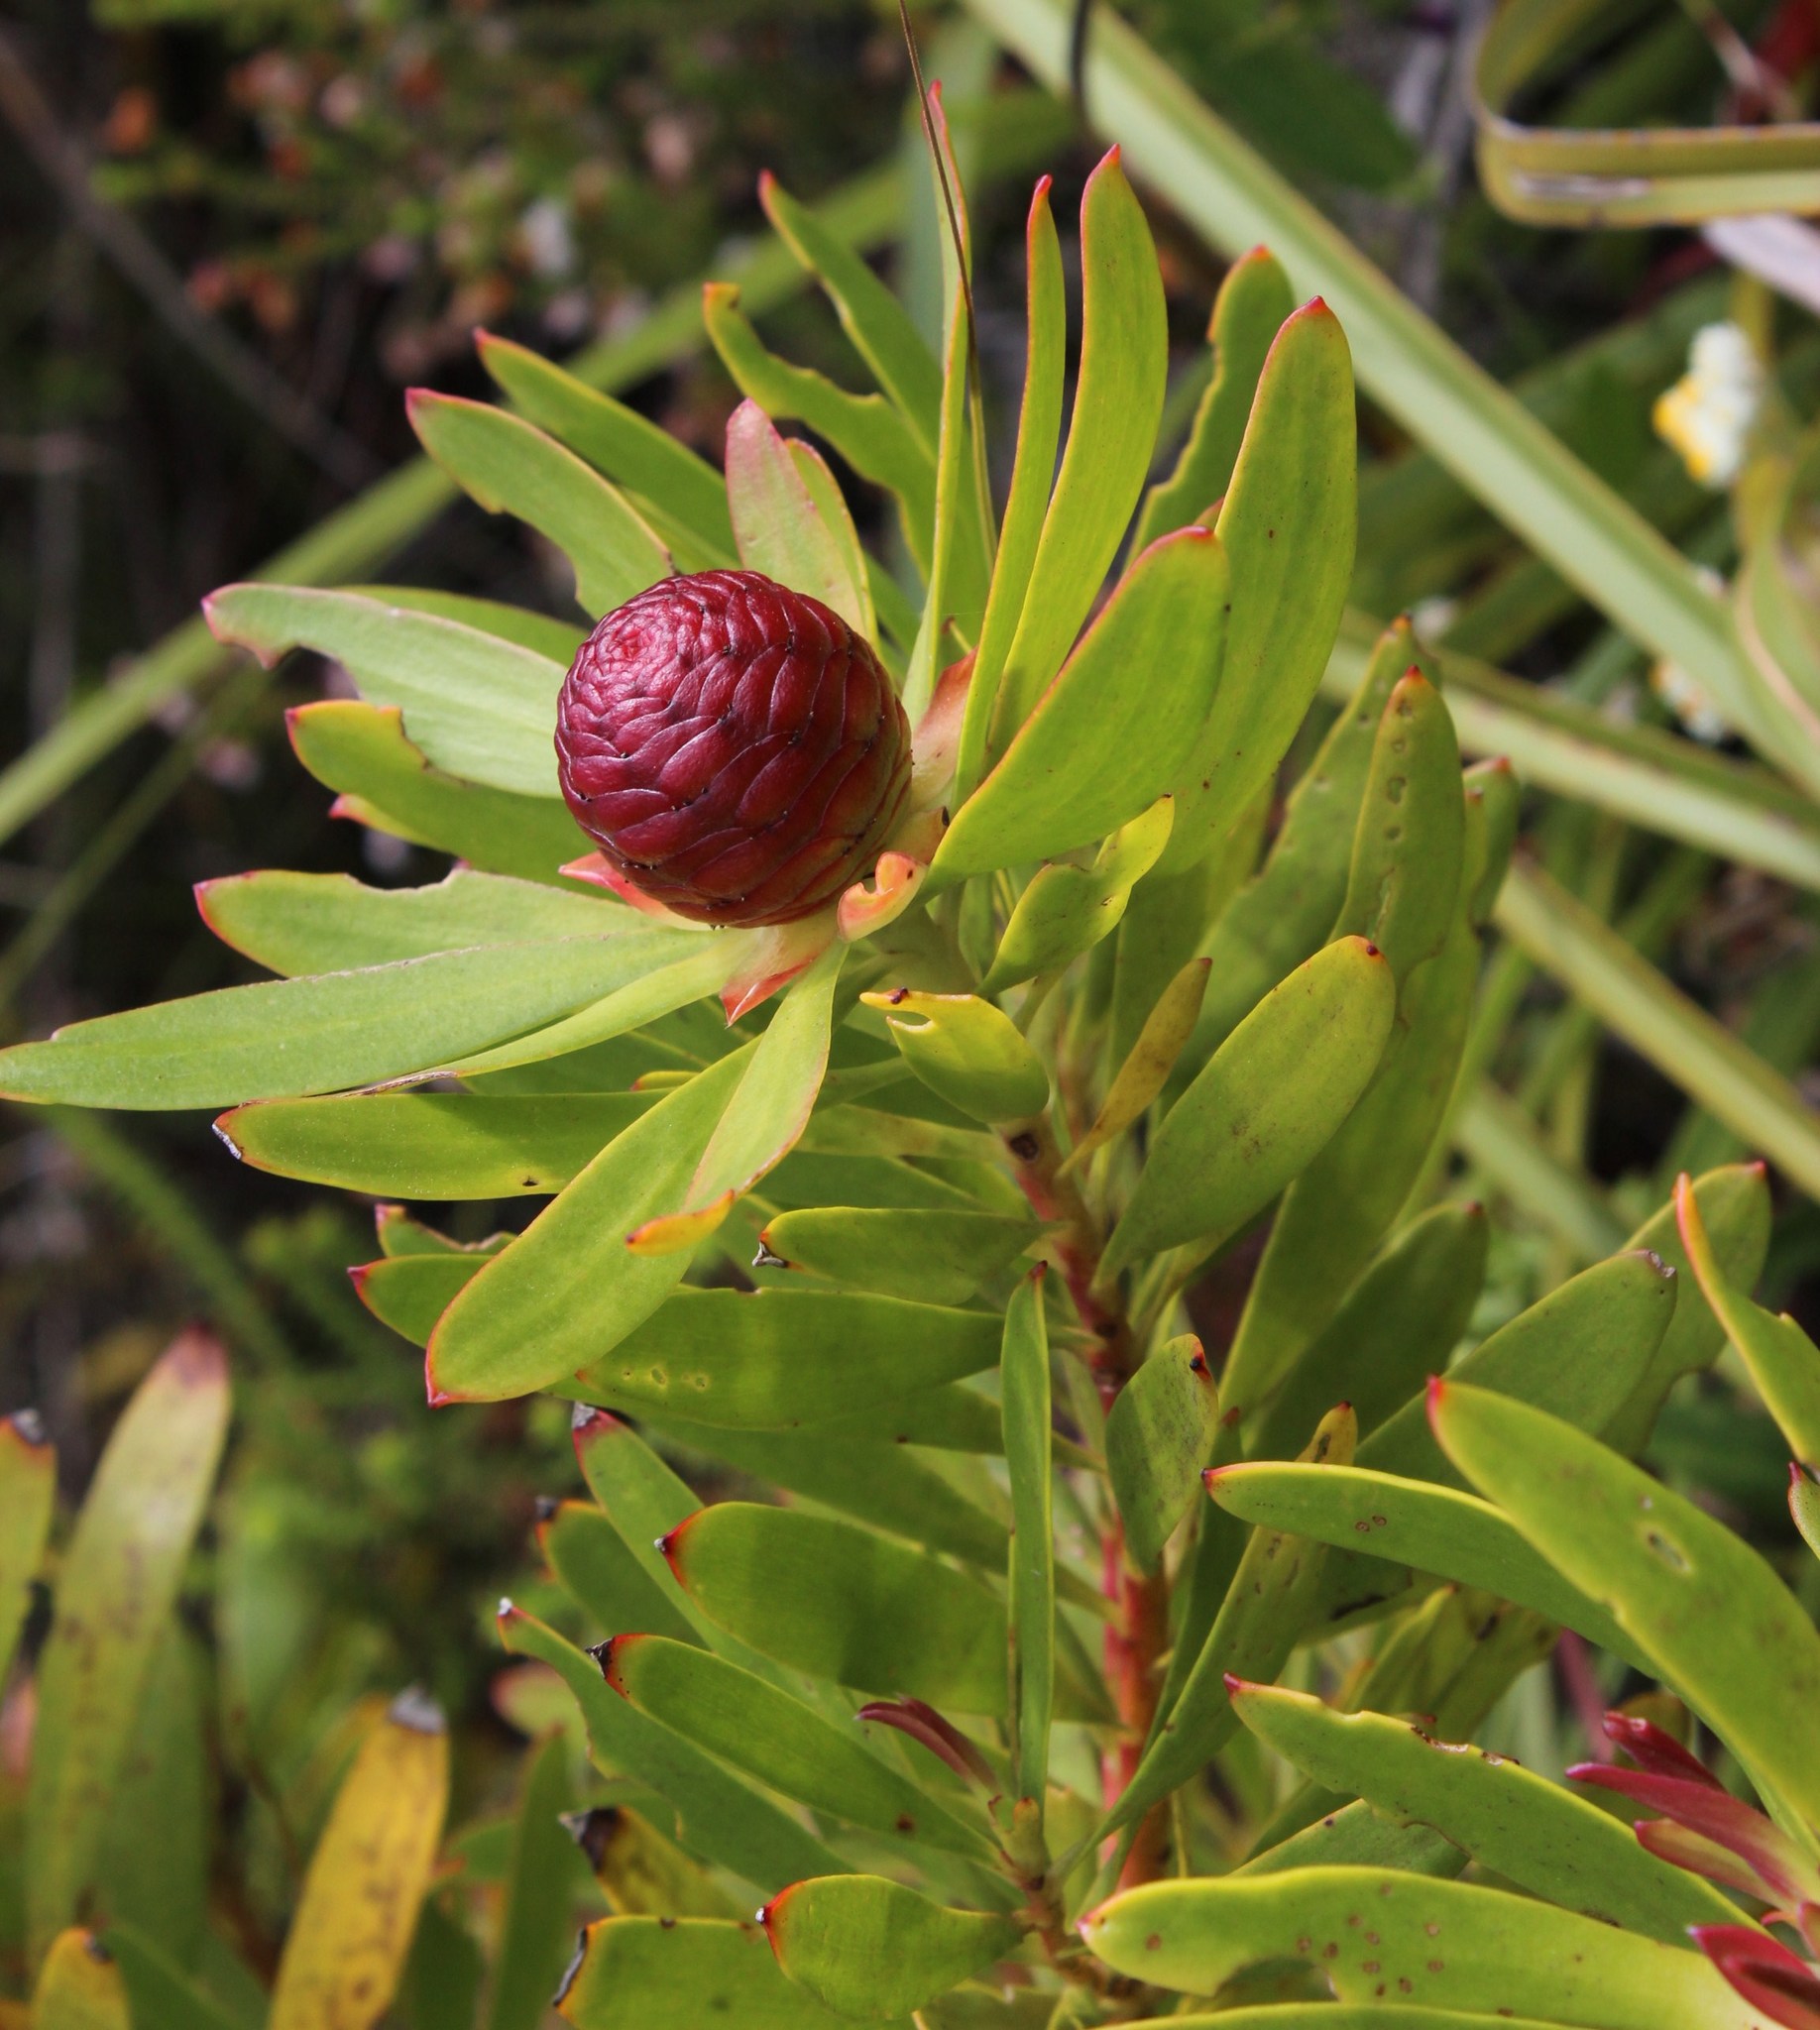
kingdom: Plantae
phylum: Tracheophyta
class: Magnoliopsida
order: Proteales
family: Proteaceae
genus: Leucadendron
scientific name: Leucadendron eucalyptifolium
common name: Gum-leaved conebush
